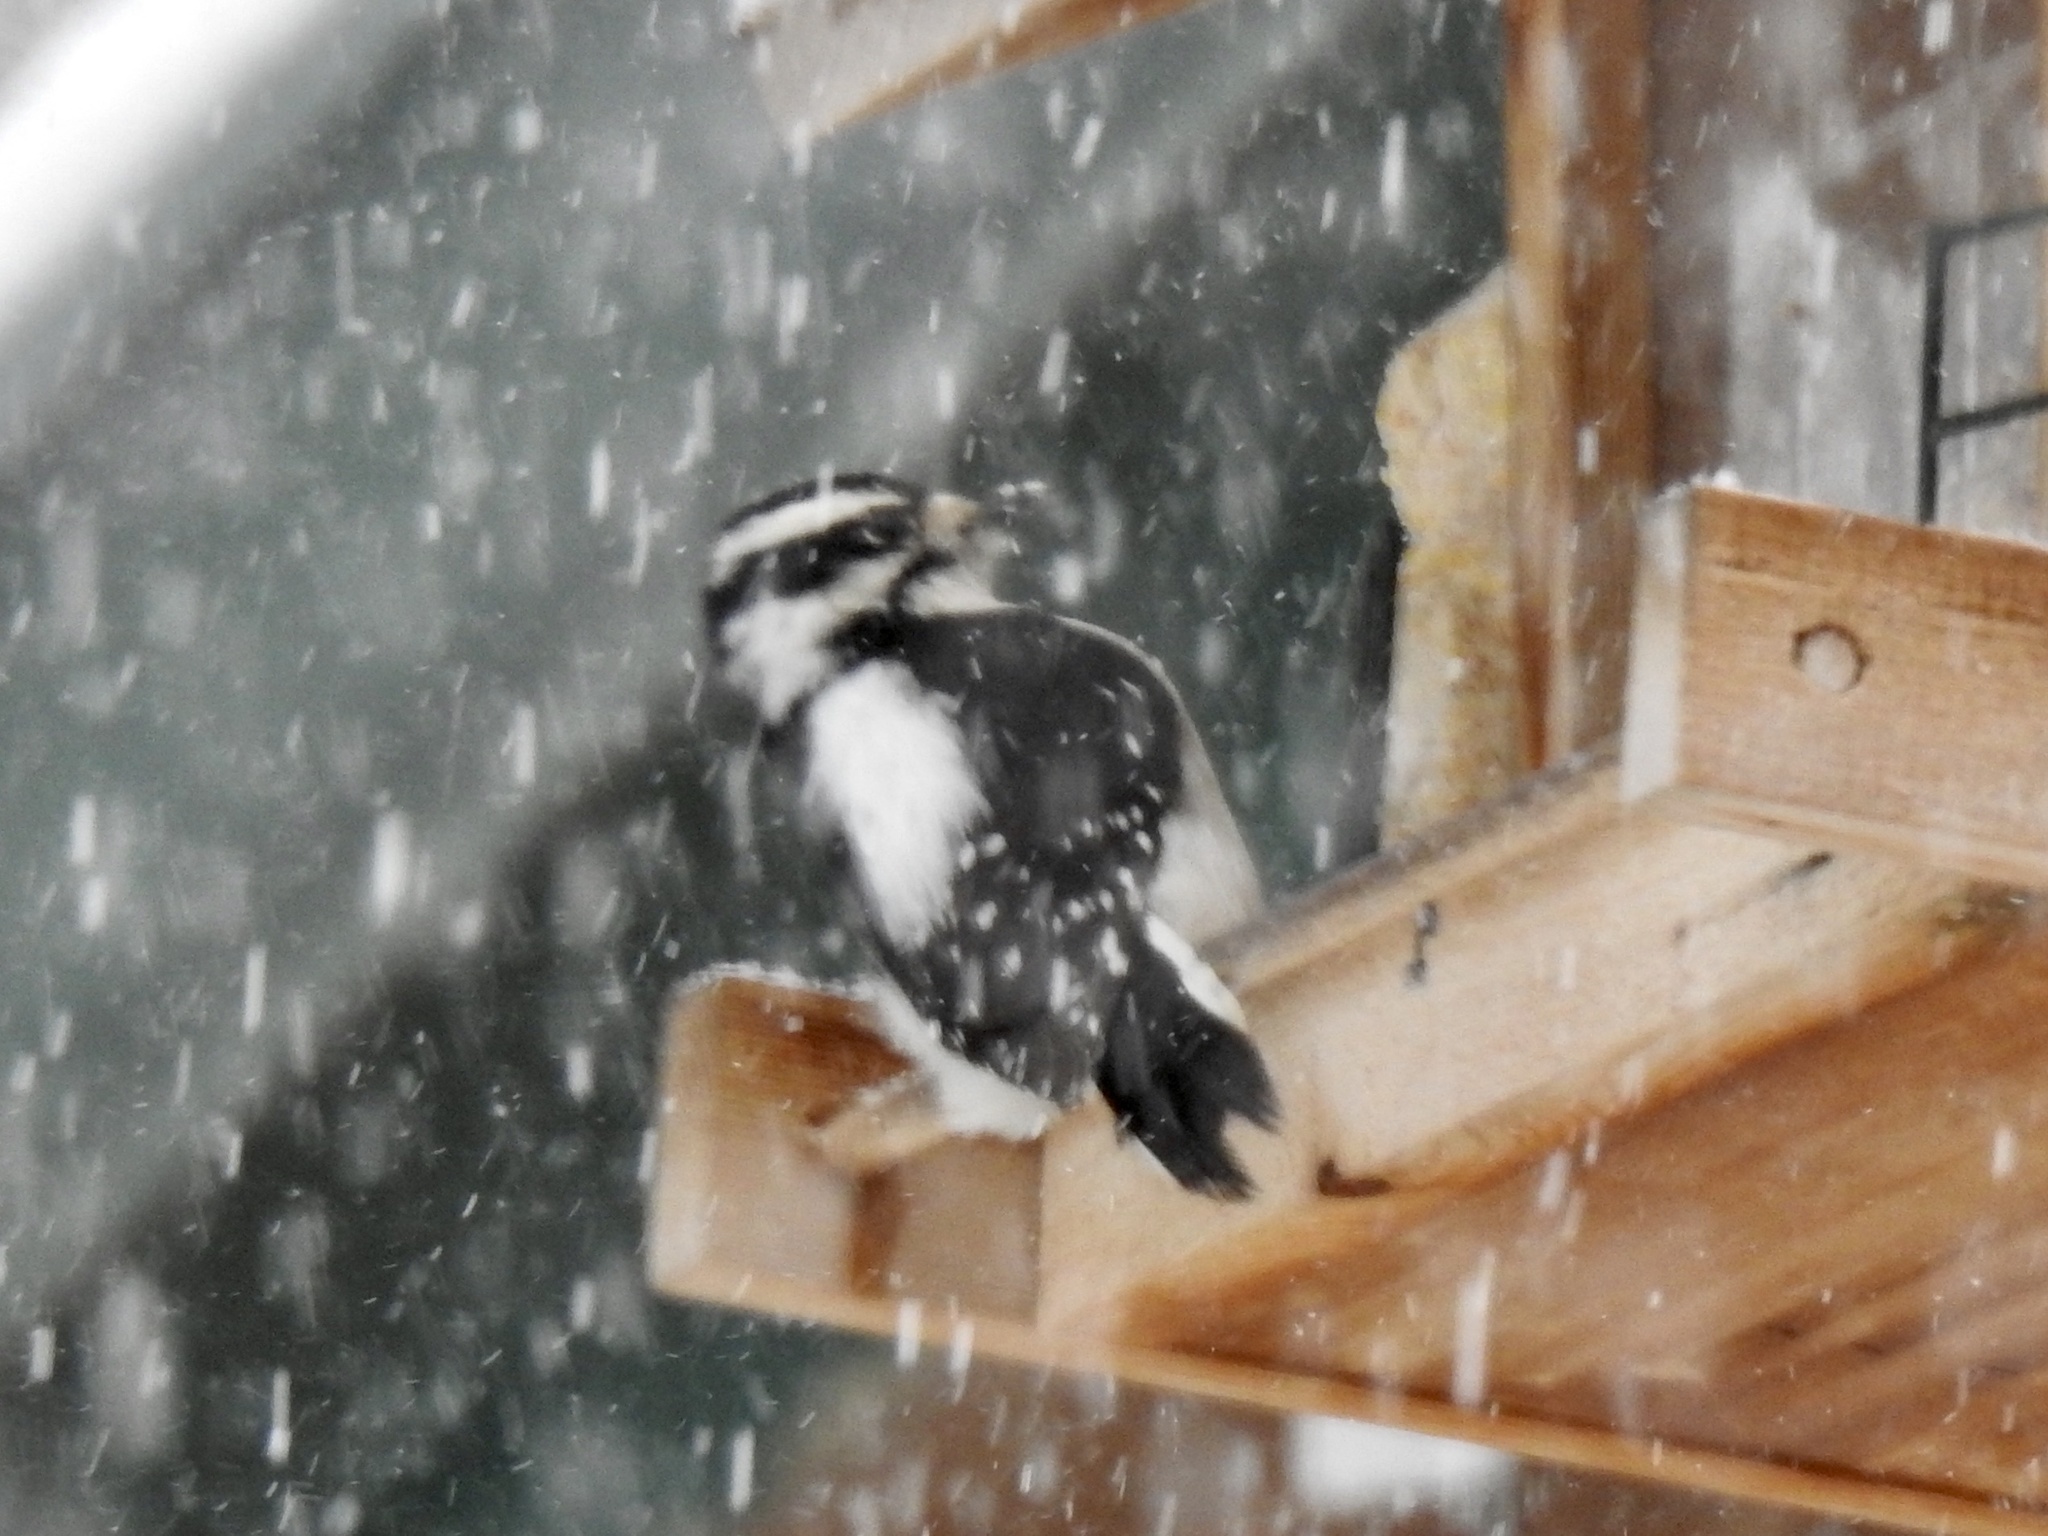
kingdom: Animalia
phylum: Chordata
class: Aves
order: Piciformes
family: Picidae
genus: Dryobates
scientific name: Dryobates pubescens
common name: Downy woodpecker
